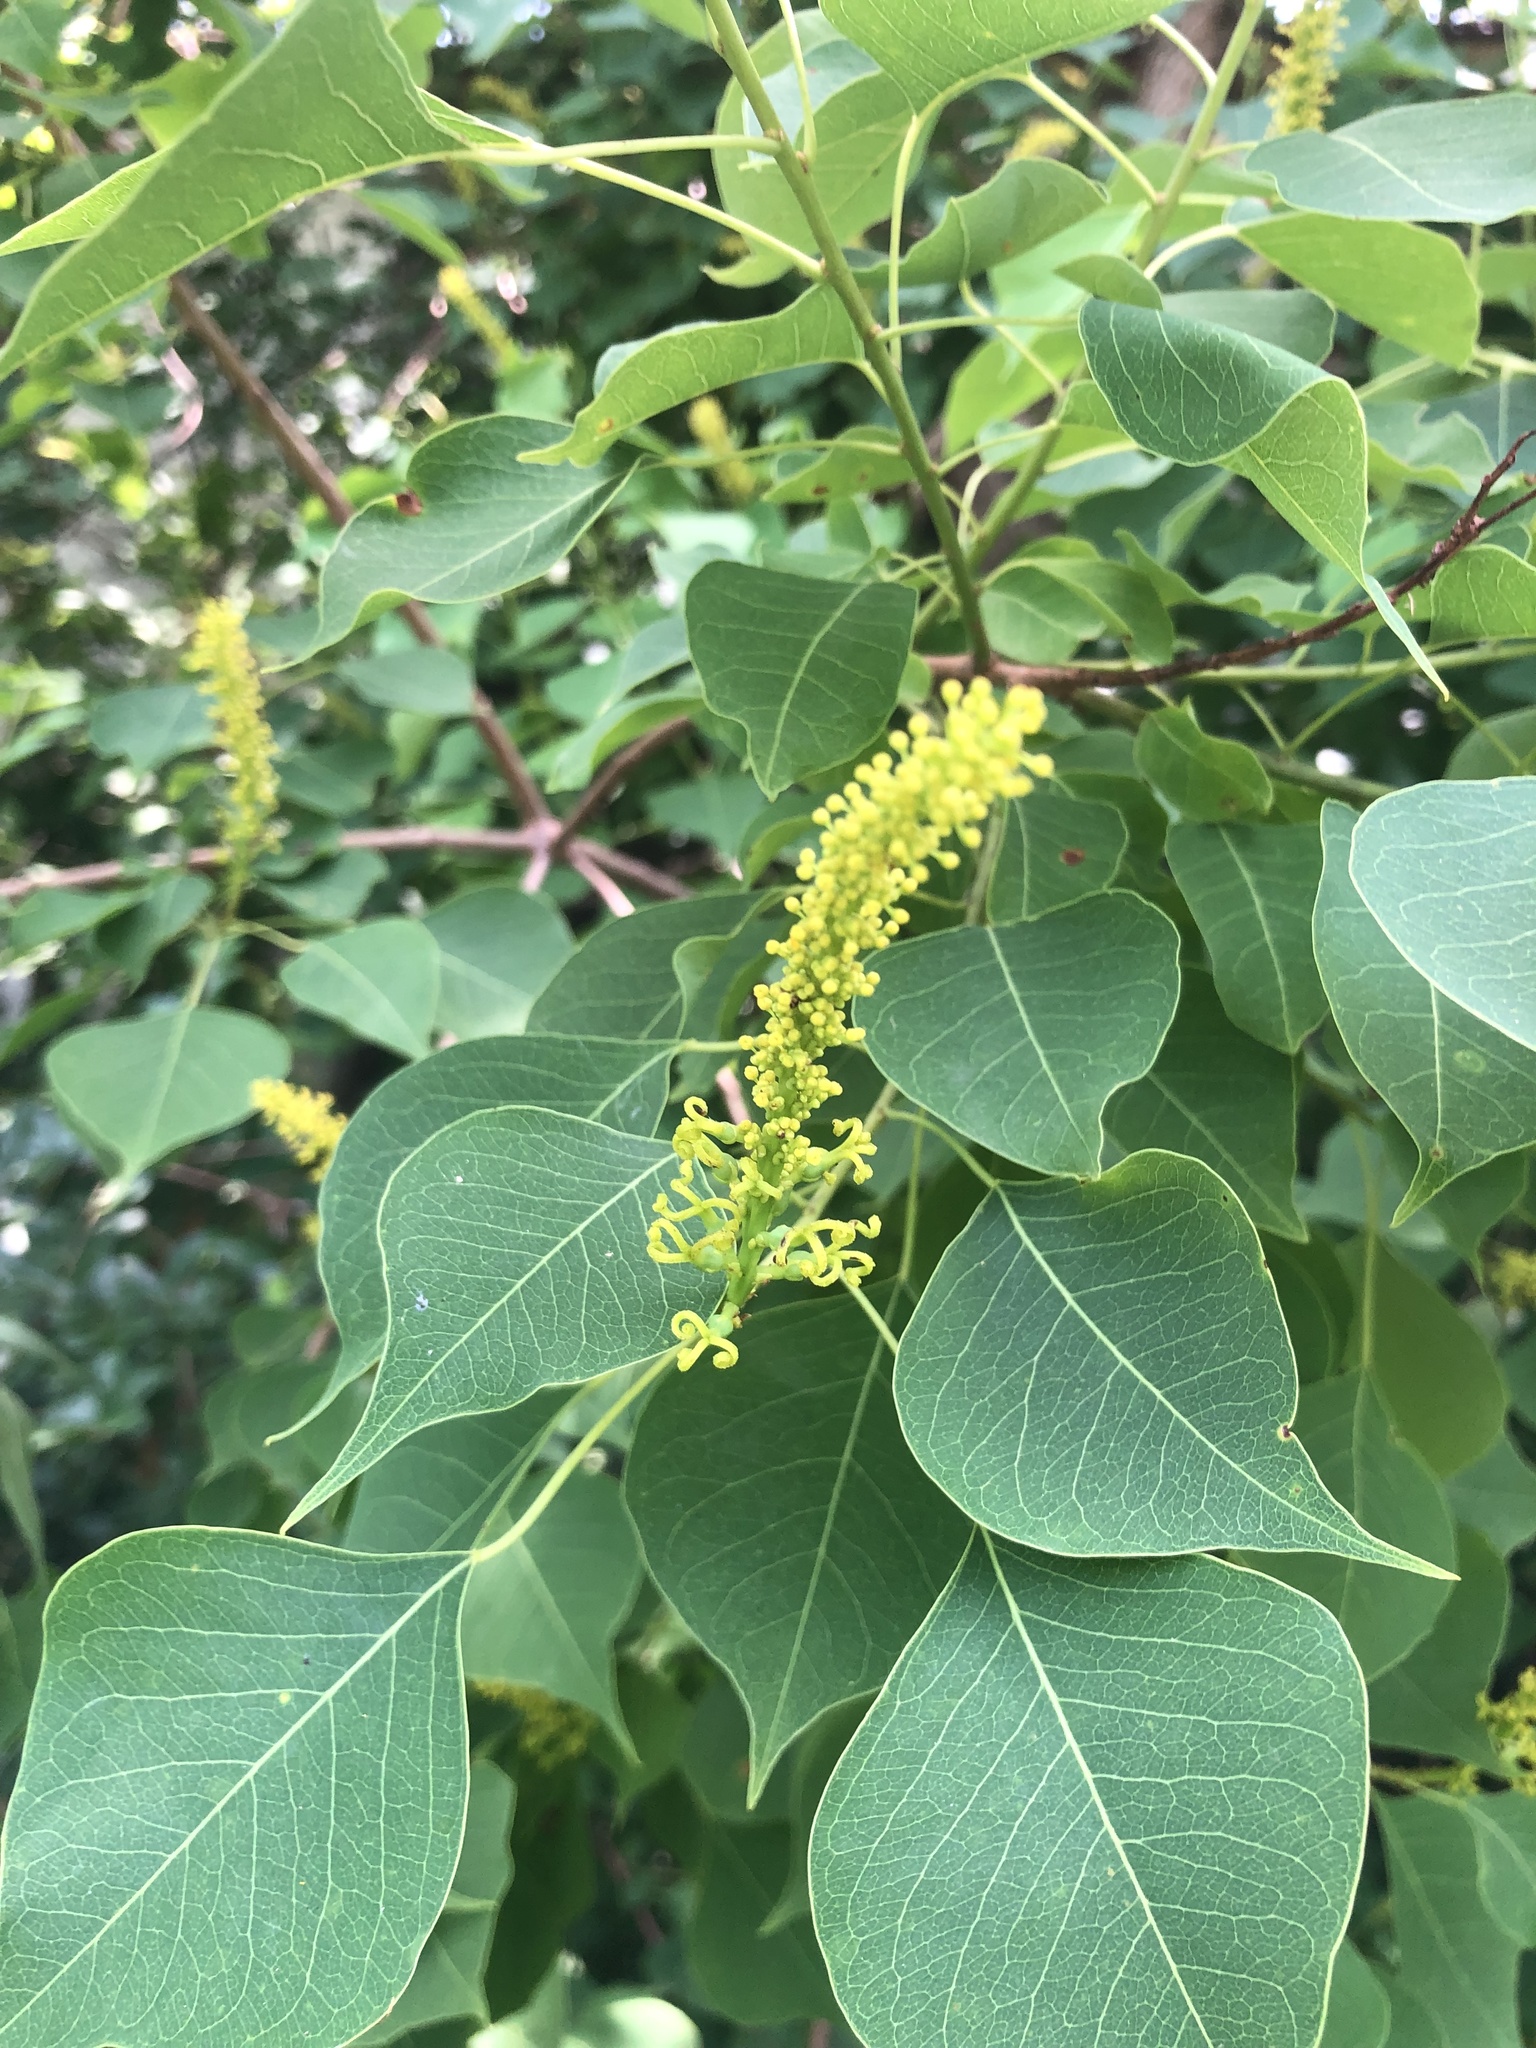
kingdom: Plantae
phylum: Tracheophyta
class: Magnoliopsida
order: Malpighiales
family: Euphorbiaceae
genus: Triadica
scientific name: Triadica sebifera
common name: Chinese tallow
